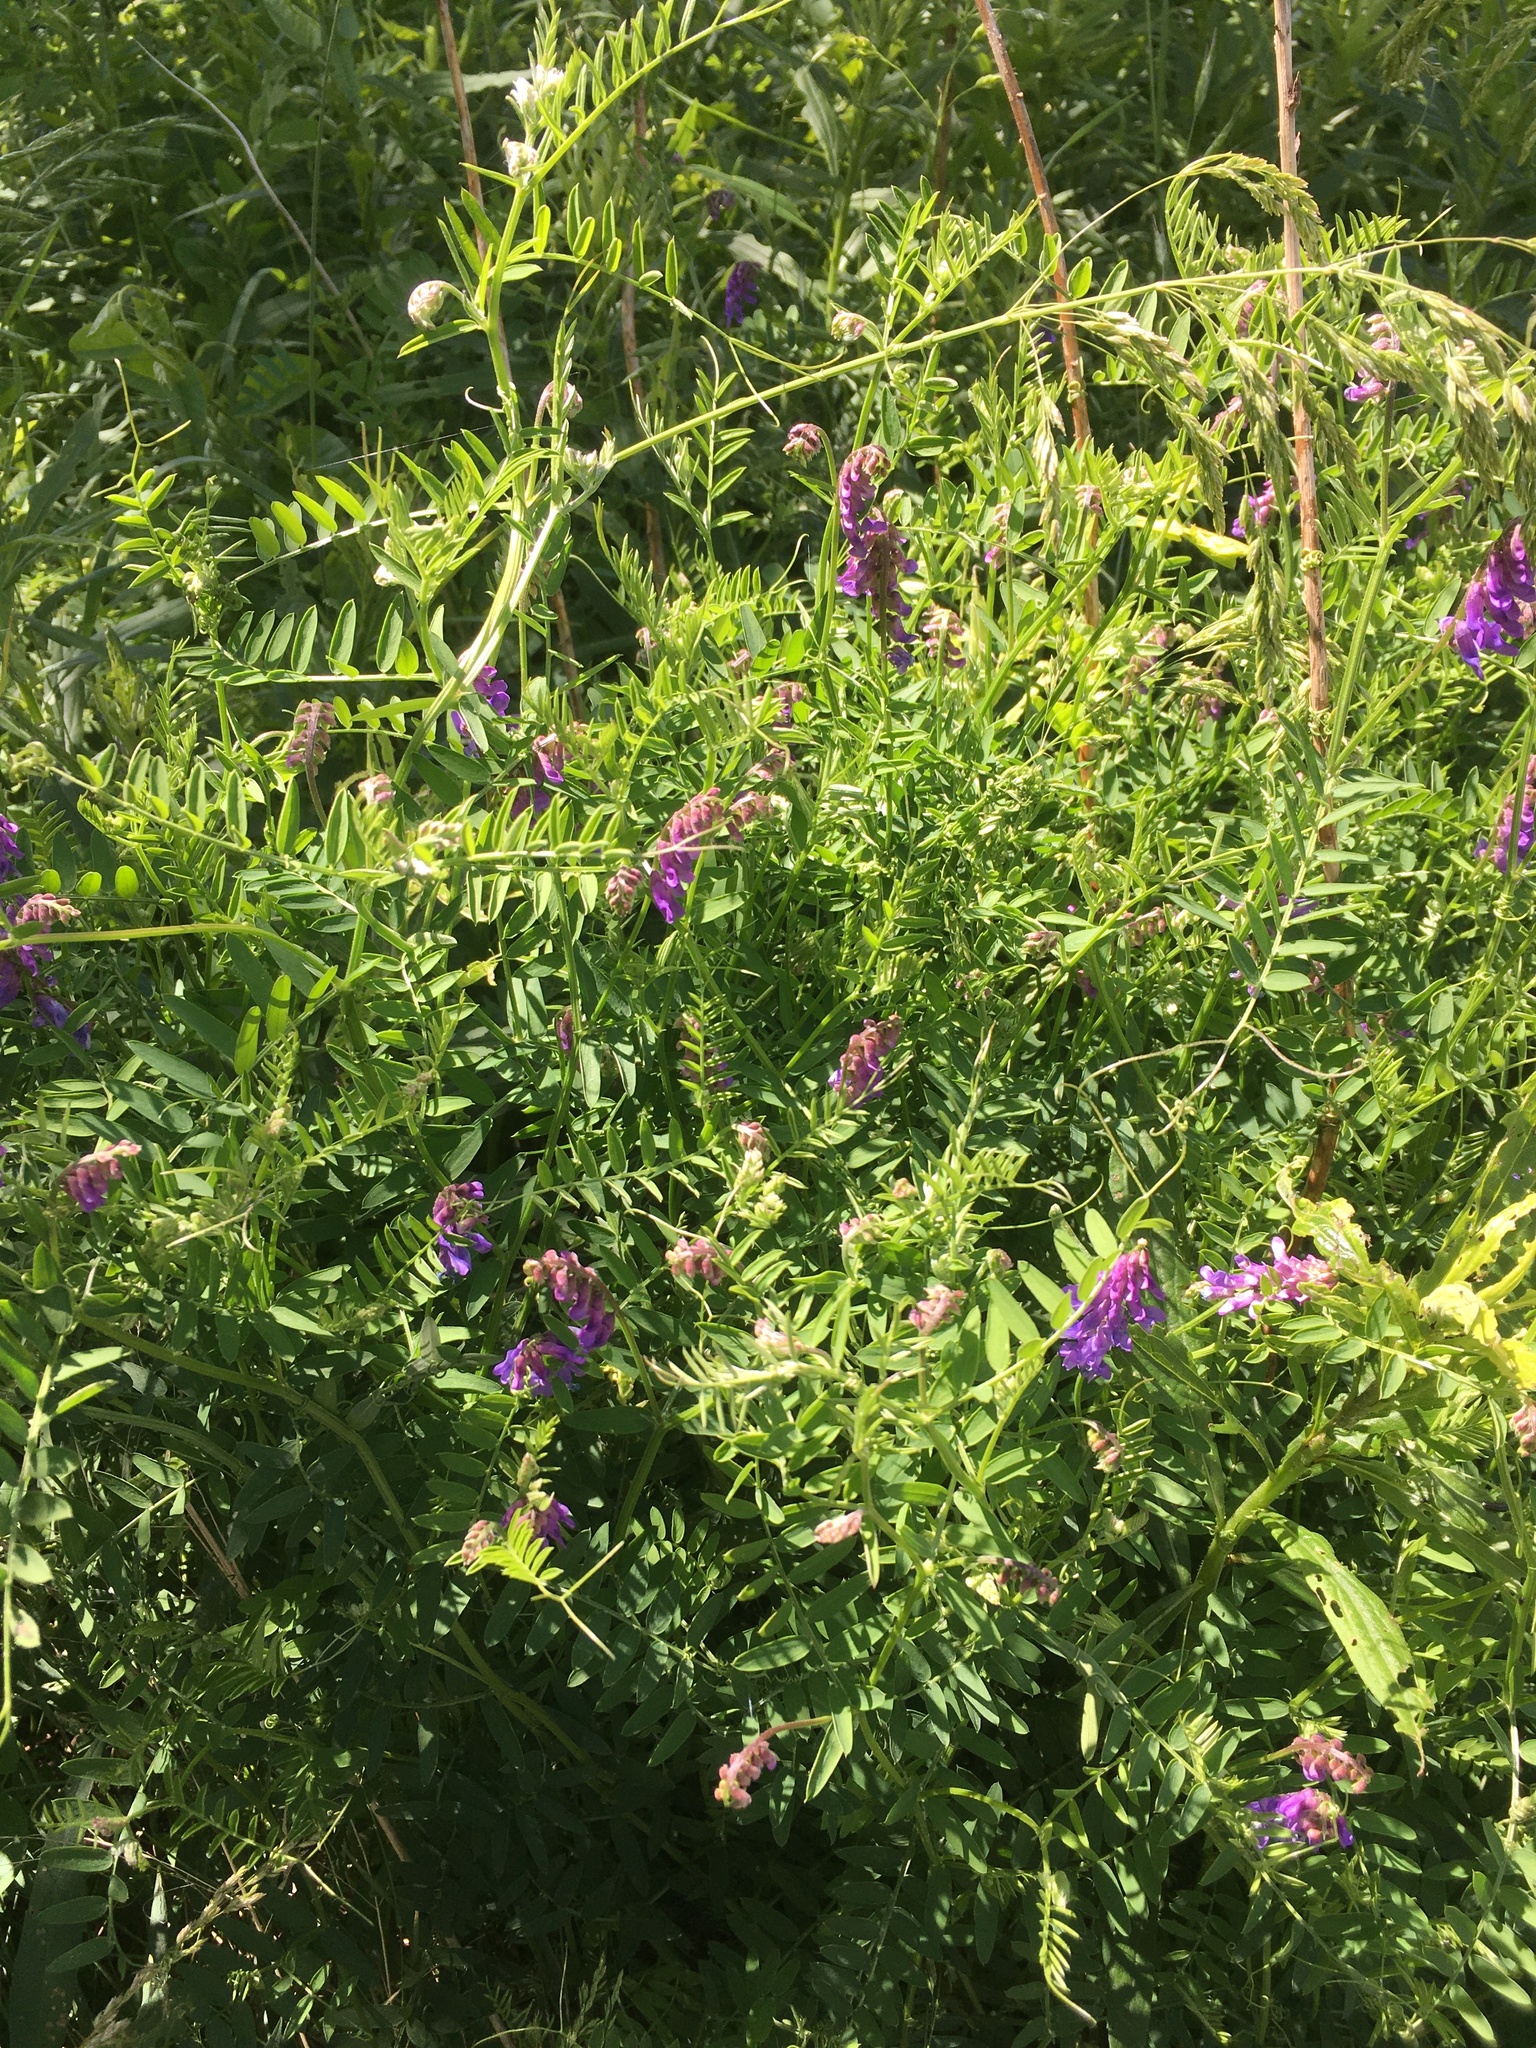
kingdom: Plantae
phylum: Tracheophyta
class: Magnoliopsida
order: Fabales
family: Fabaceae
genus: Vicia
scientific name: Vicia cracca
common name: Bird vetch
